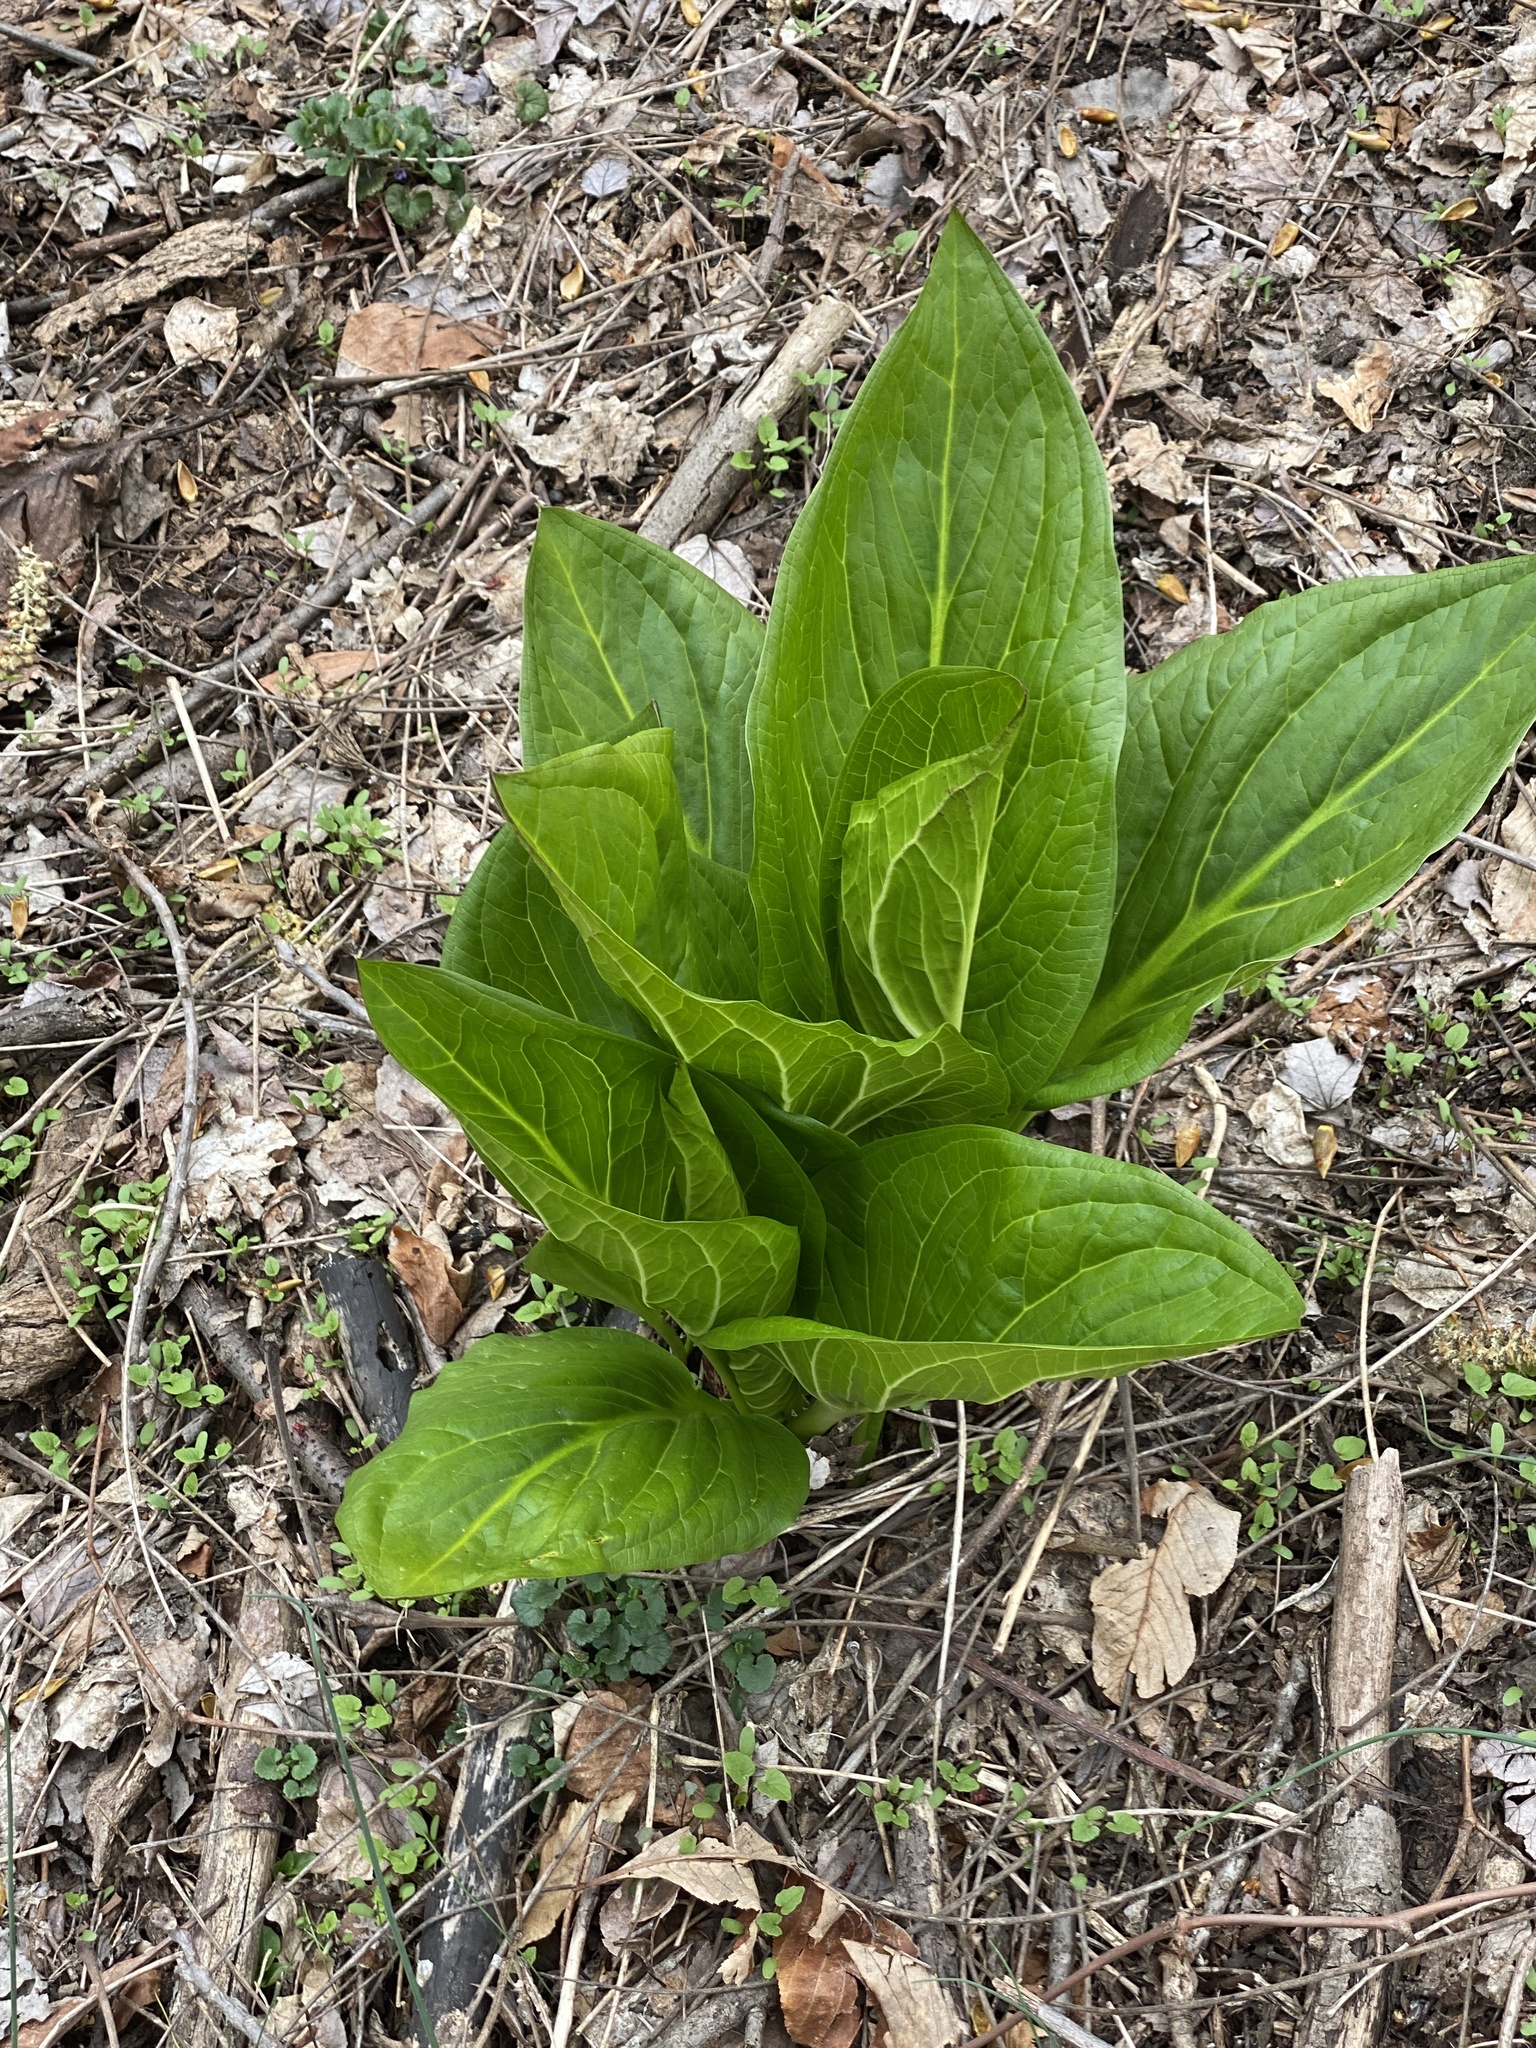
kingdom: Plantae
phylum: Tracheophyta
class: Liliopsida
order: Alismatales
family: Araceae
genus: Symplocarpus
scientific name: Symplocarpus foetidus
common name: Eastern skunk cabbage
